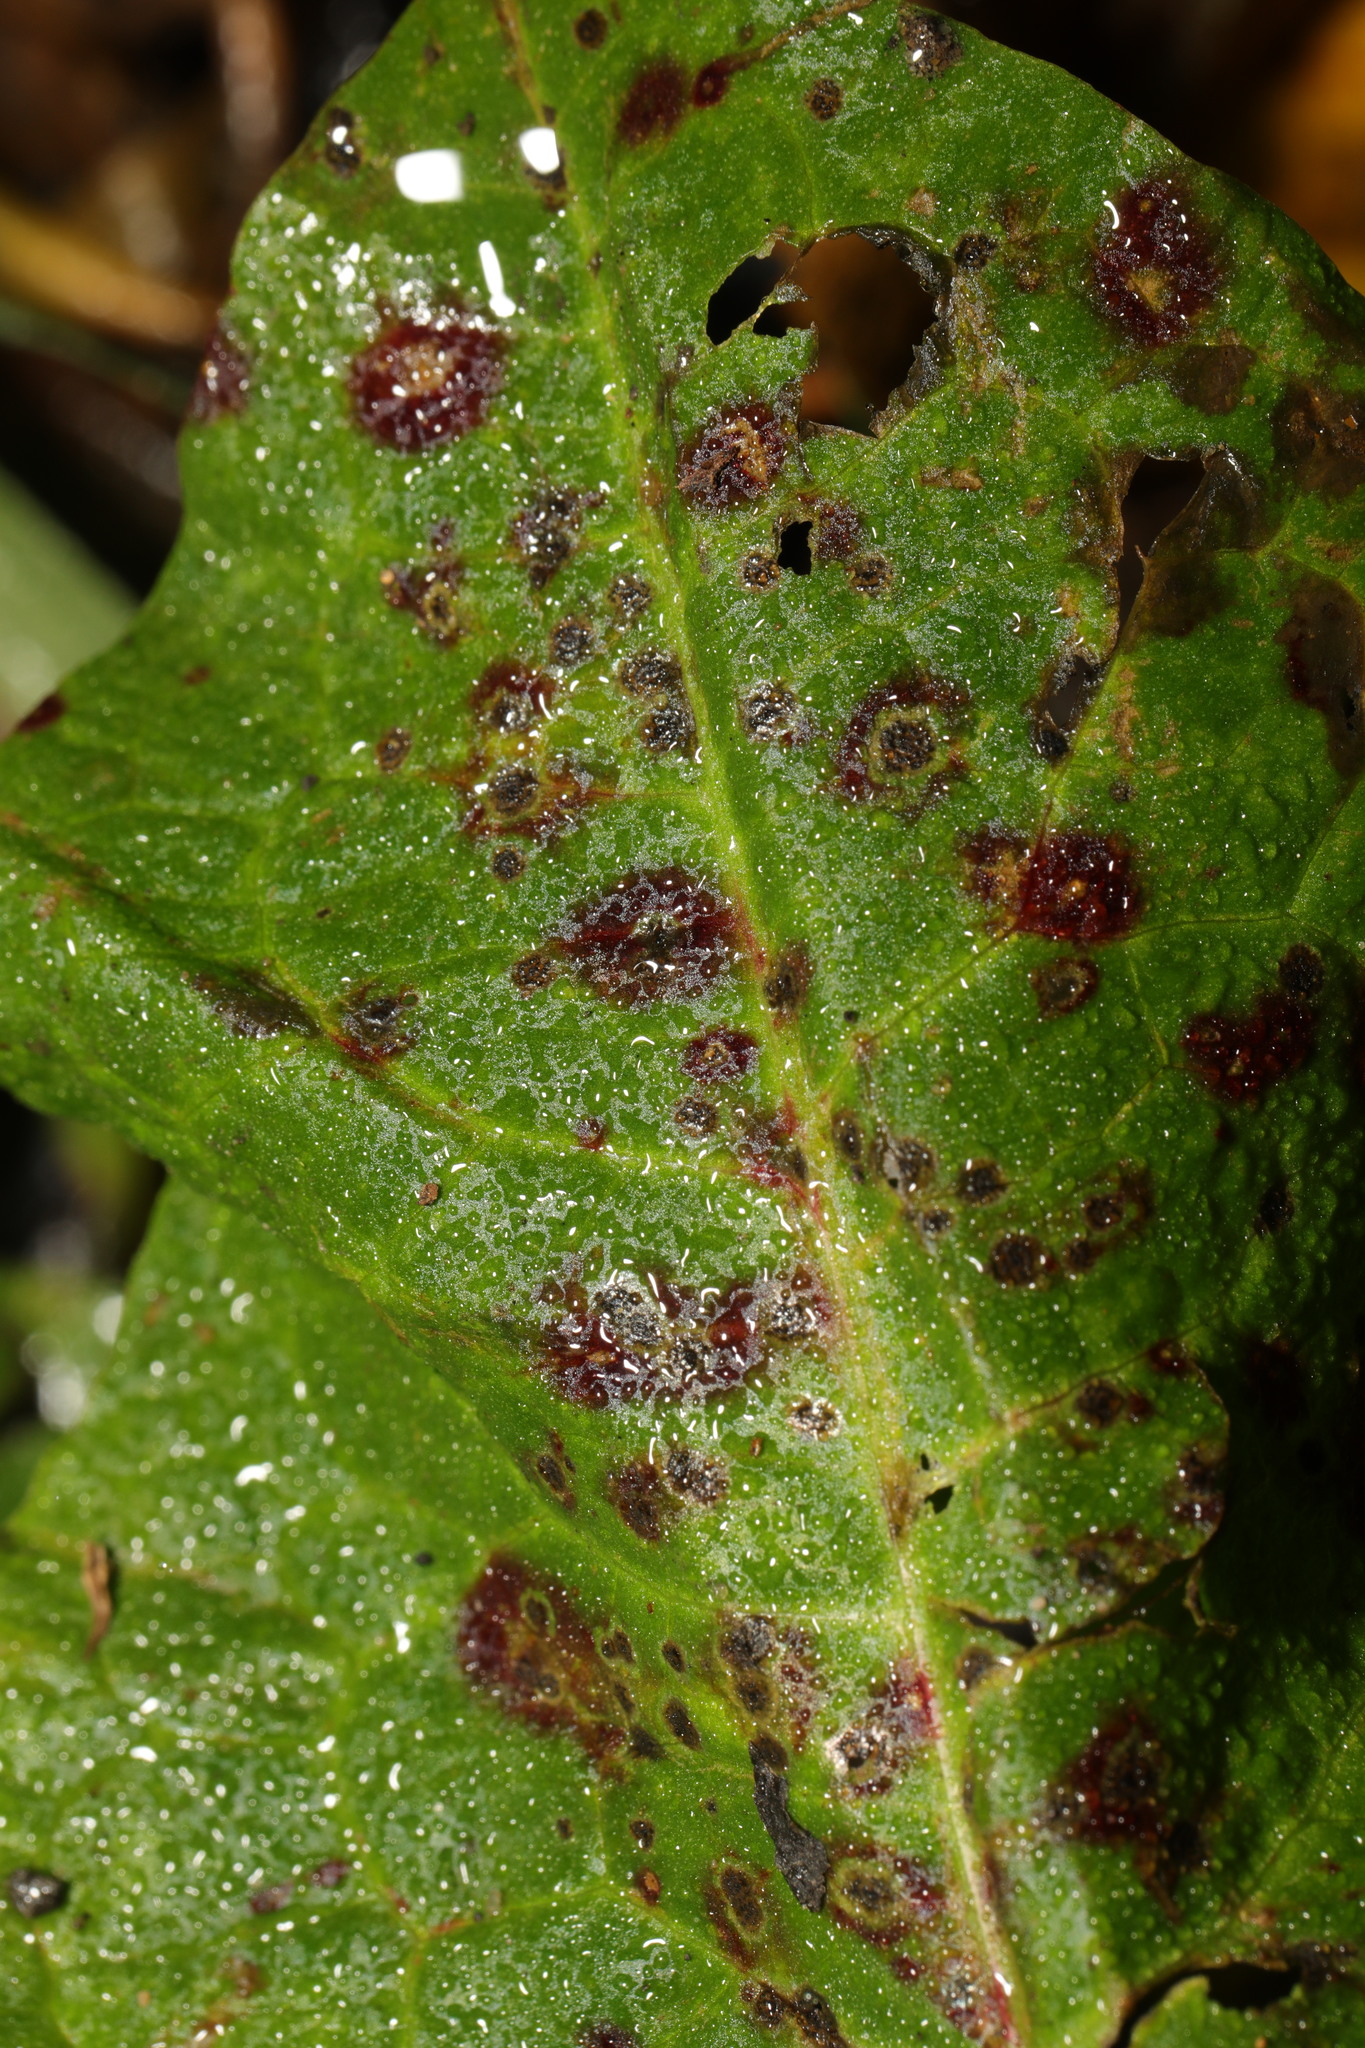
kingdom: Fungi
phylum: Ascomycota
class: Dothideomycetes
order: Mycosphaerellales
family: Mycosphaerellaceae
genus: Ramularia
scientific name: Ramularia rubella
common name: Red dock spot
